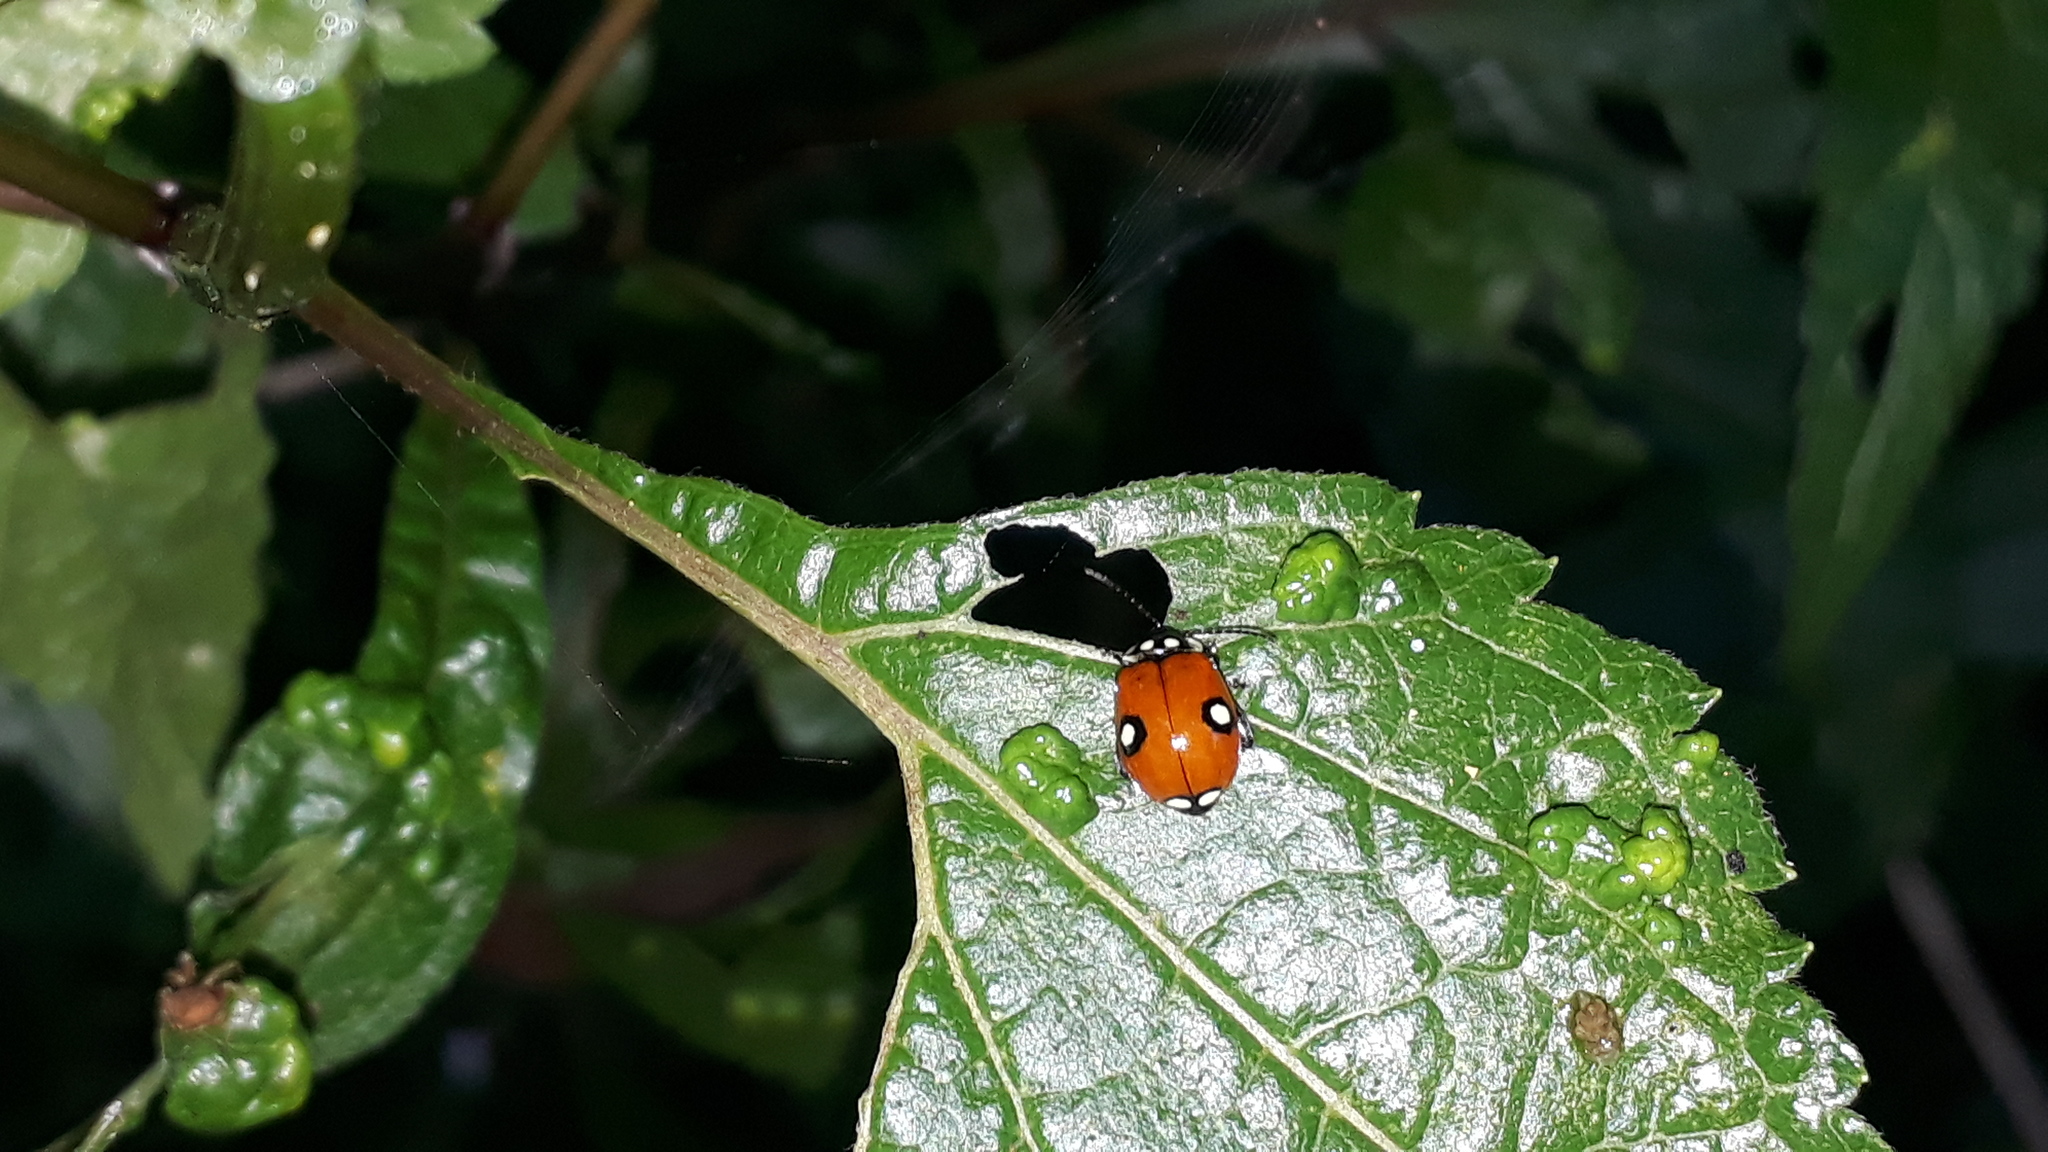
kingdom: Animalia
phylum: Arthropoda
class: Insecta
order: Coleoptera
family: Chrysomelidae
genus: Alagoasa
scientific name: Alagoasa
